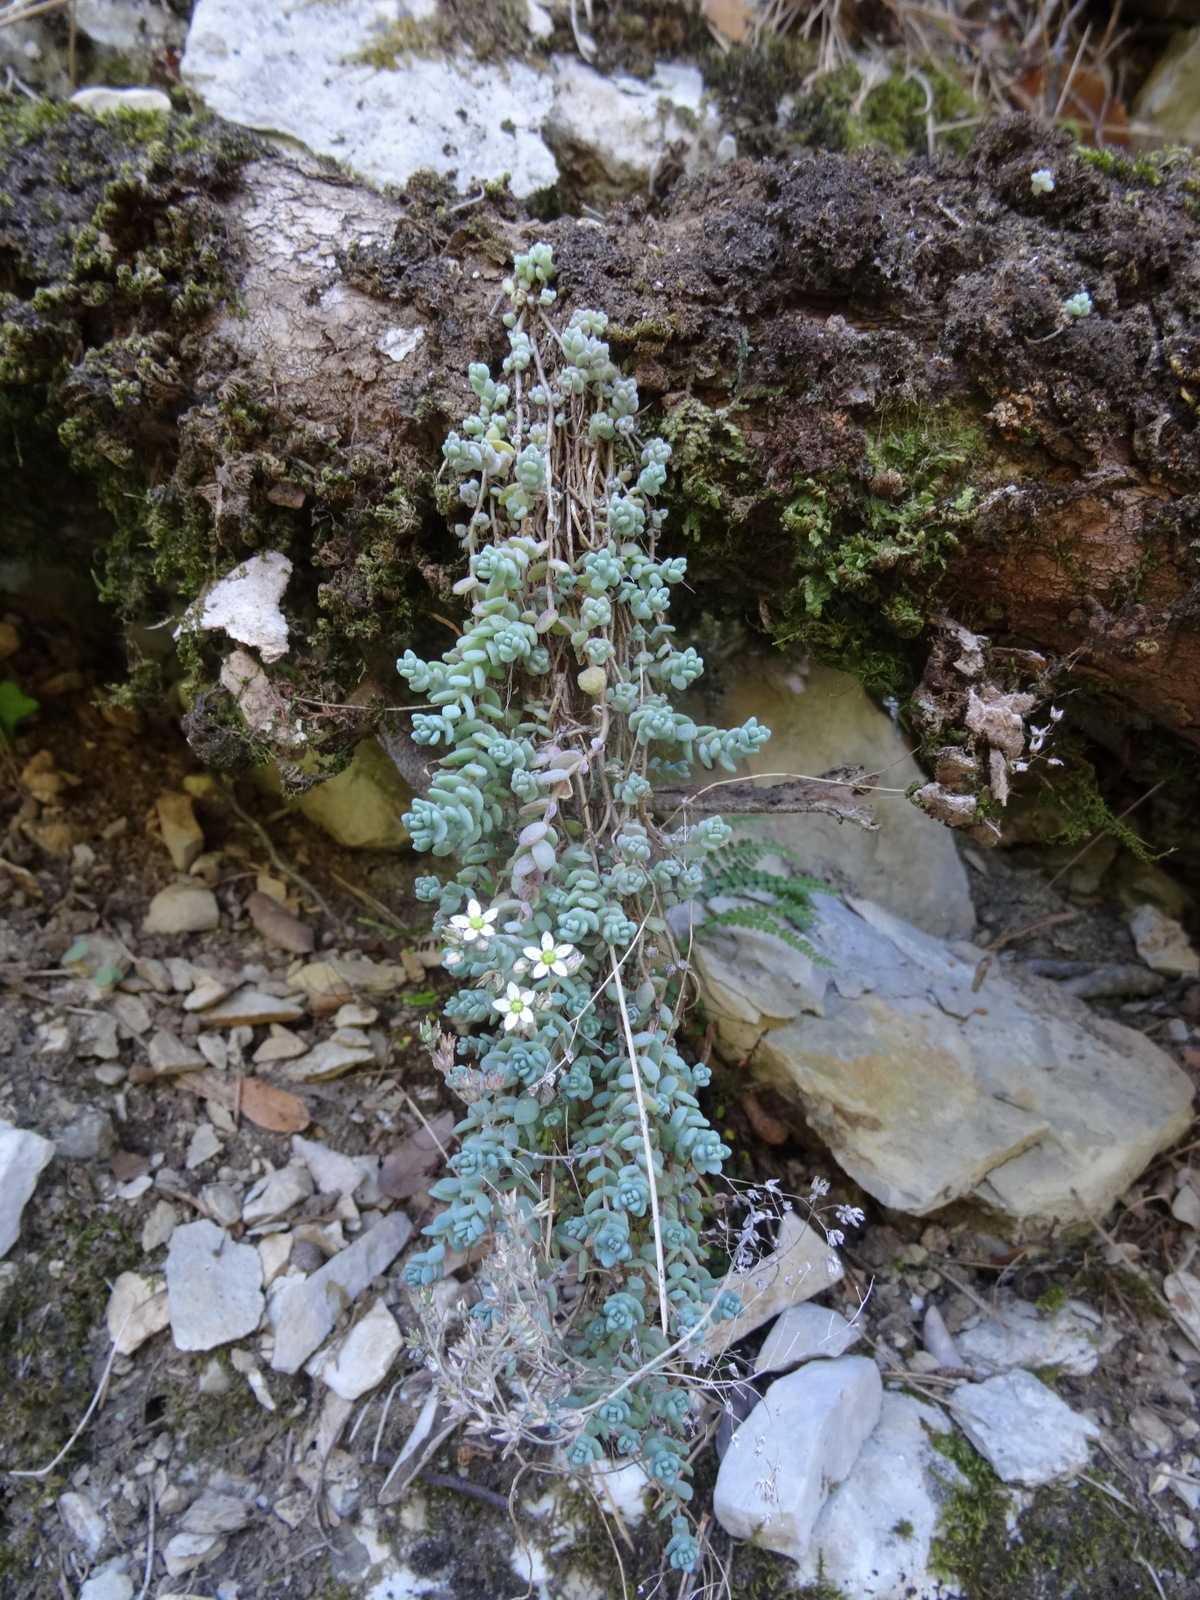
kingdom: Plantae
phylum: Tracheophyta
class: Magnoliopsida
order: Saxifragales
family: Crassulaceae
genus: Sedum
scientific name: Sedum dasyphyllum
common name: Thick-leaf stonecrop
